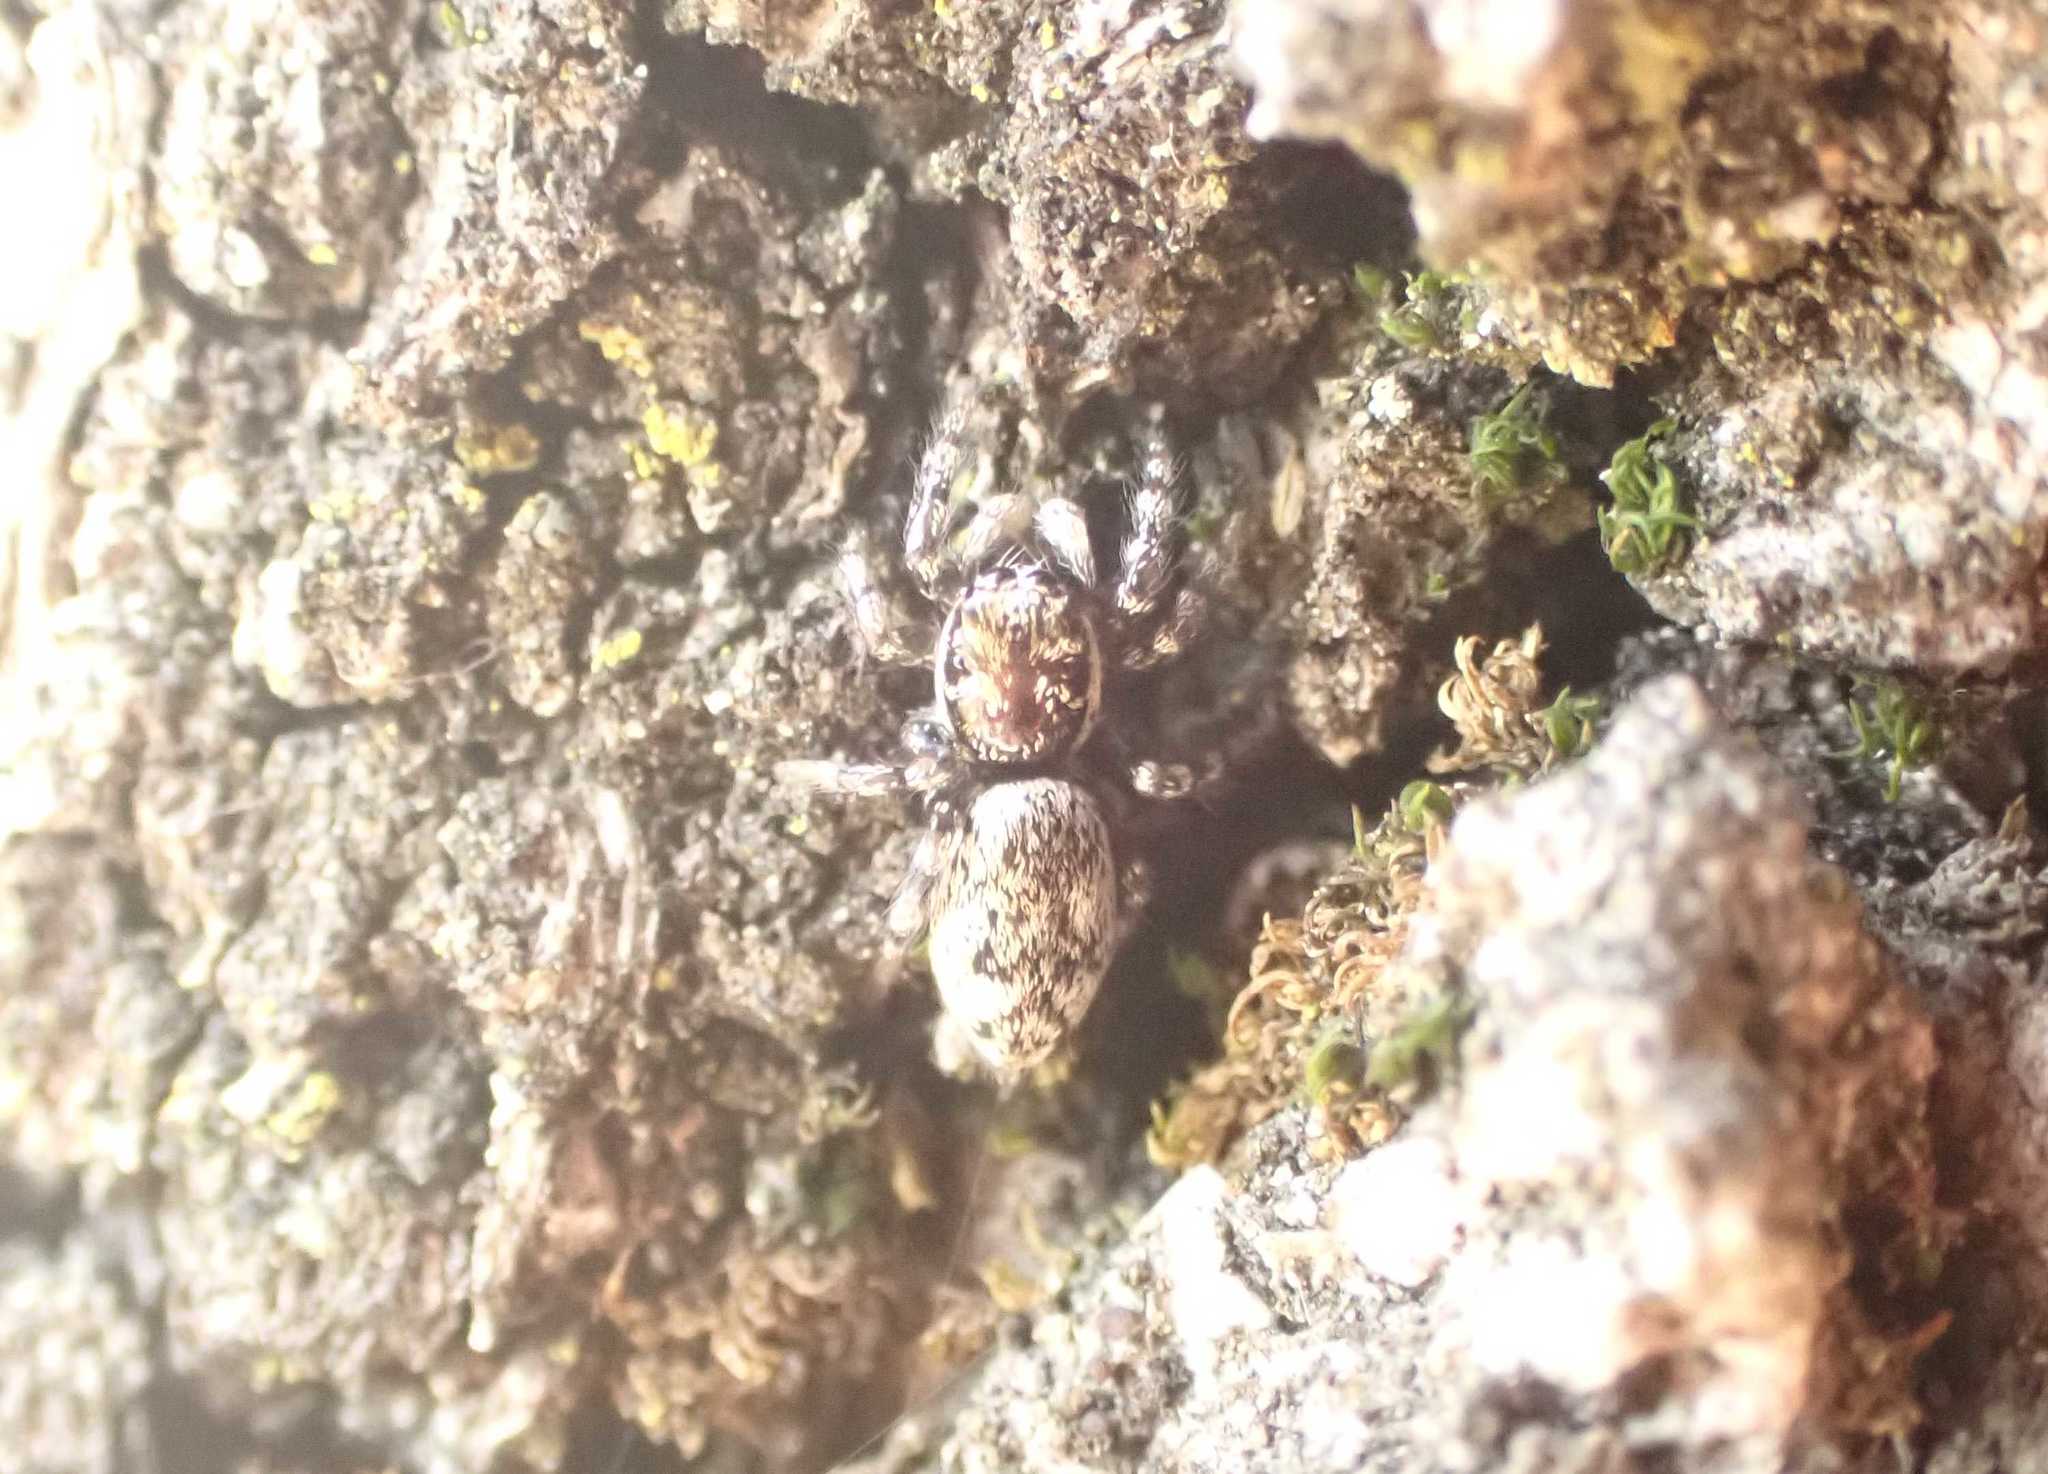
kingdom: Animalia
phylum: Arthropoda
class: Arachnida
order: Araneae
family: Salticidae
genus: Salticus
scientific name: Salticus
